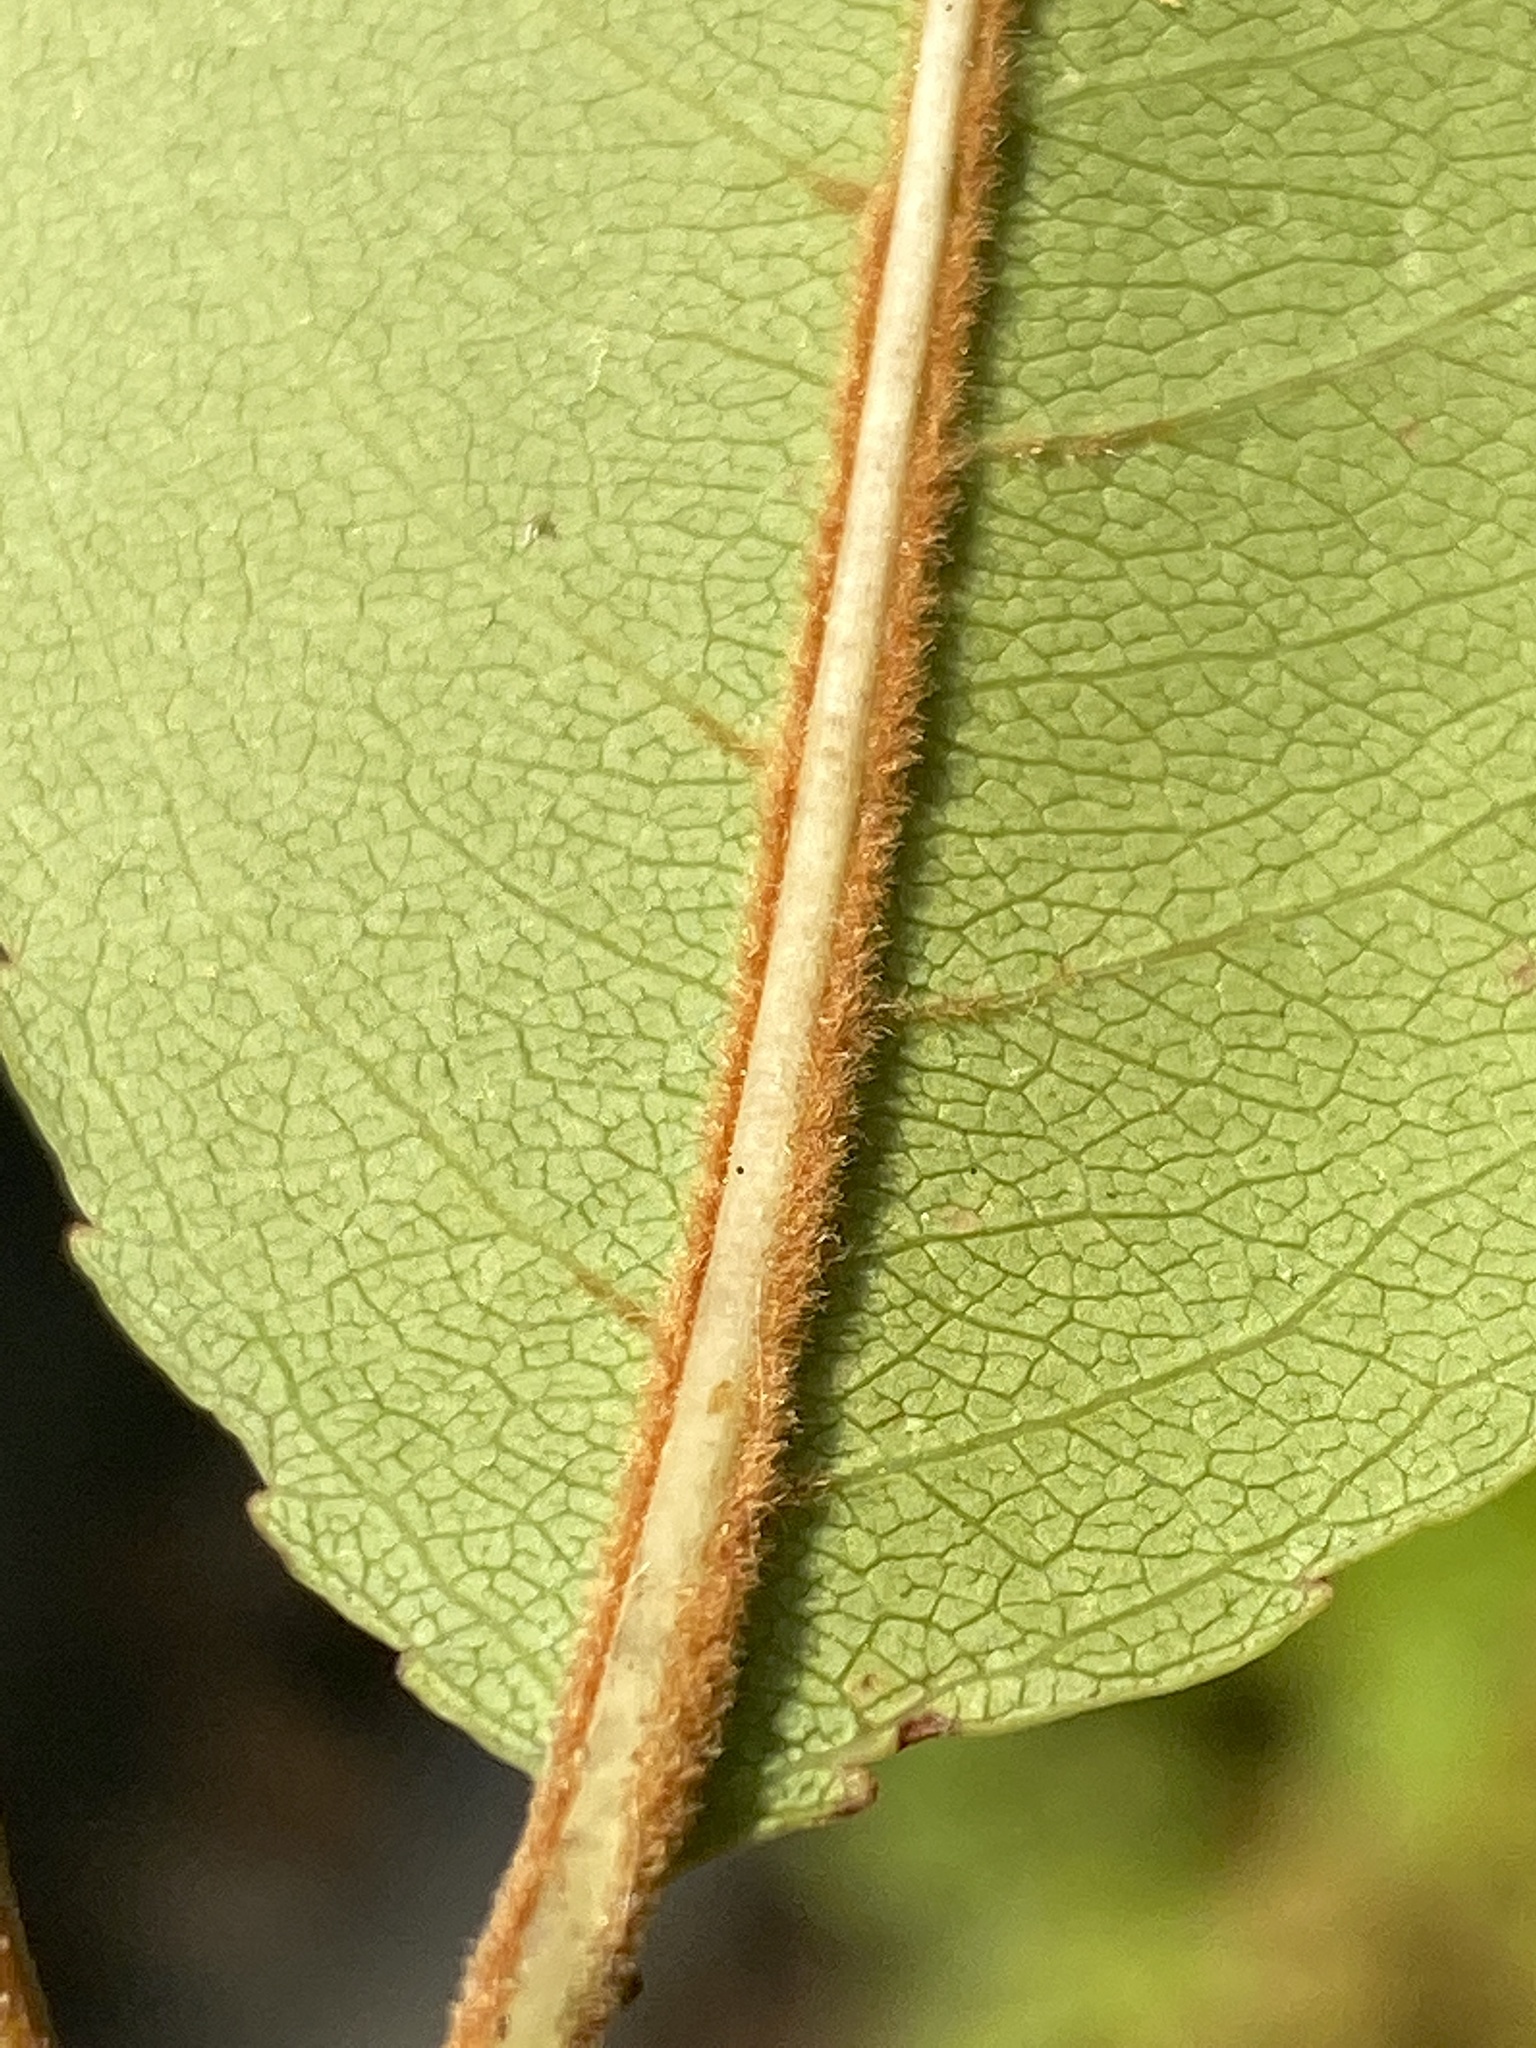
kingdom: Plantae
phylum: Tracheophyta
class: Magnoliopsida
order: Rosales
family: Rosaceae
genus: Prunus
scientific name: Prunus serotina
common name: Black cherry
